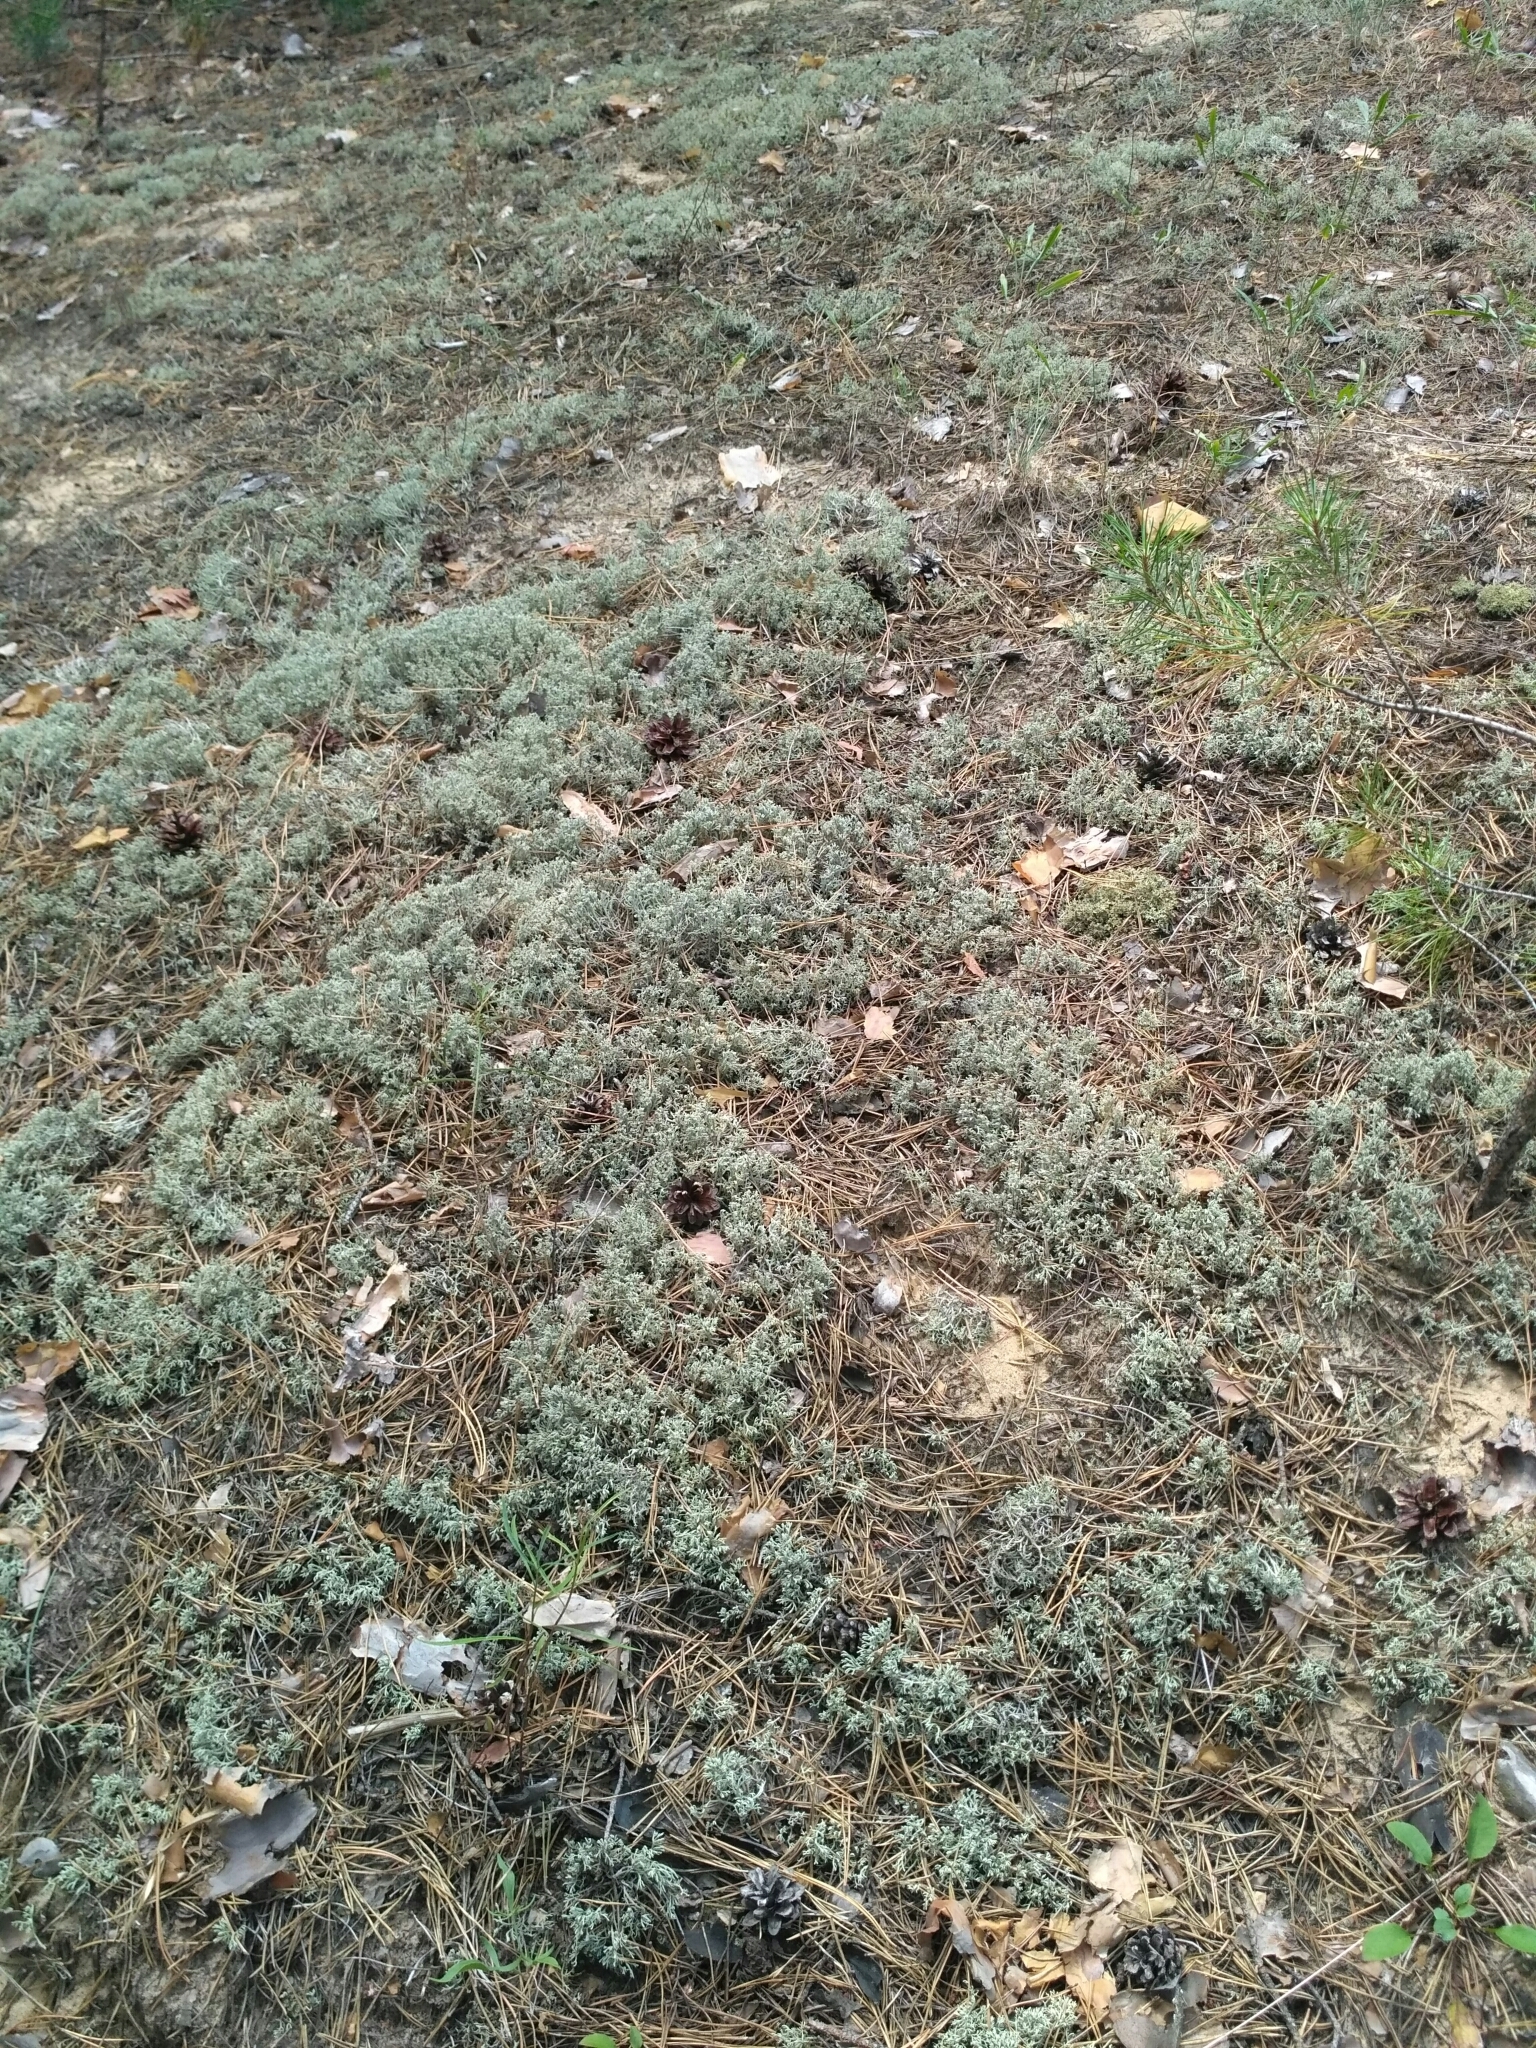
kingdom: Fungi
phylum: Ascomycota
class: Lecanoromycetes
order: Lecanorales
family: Cladoniaceae
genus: Cladonia
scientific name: Cladonia mitis
